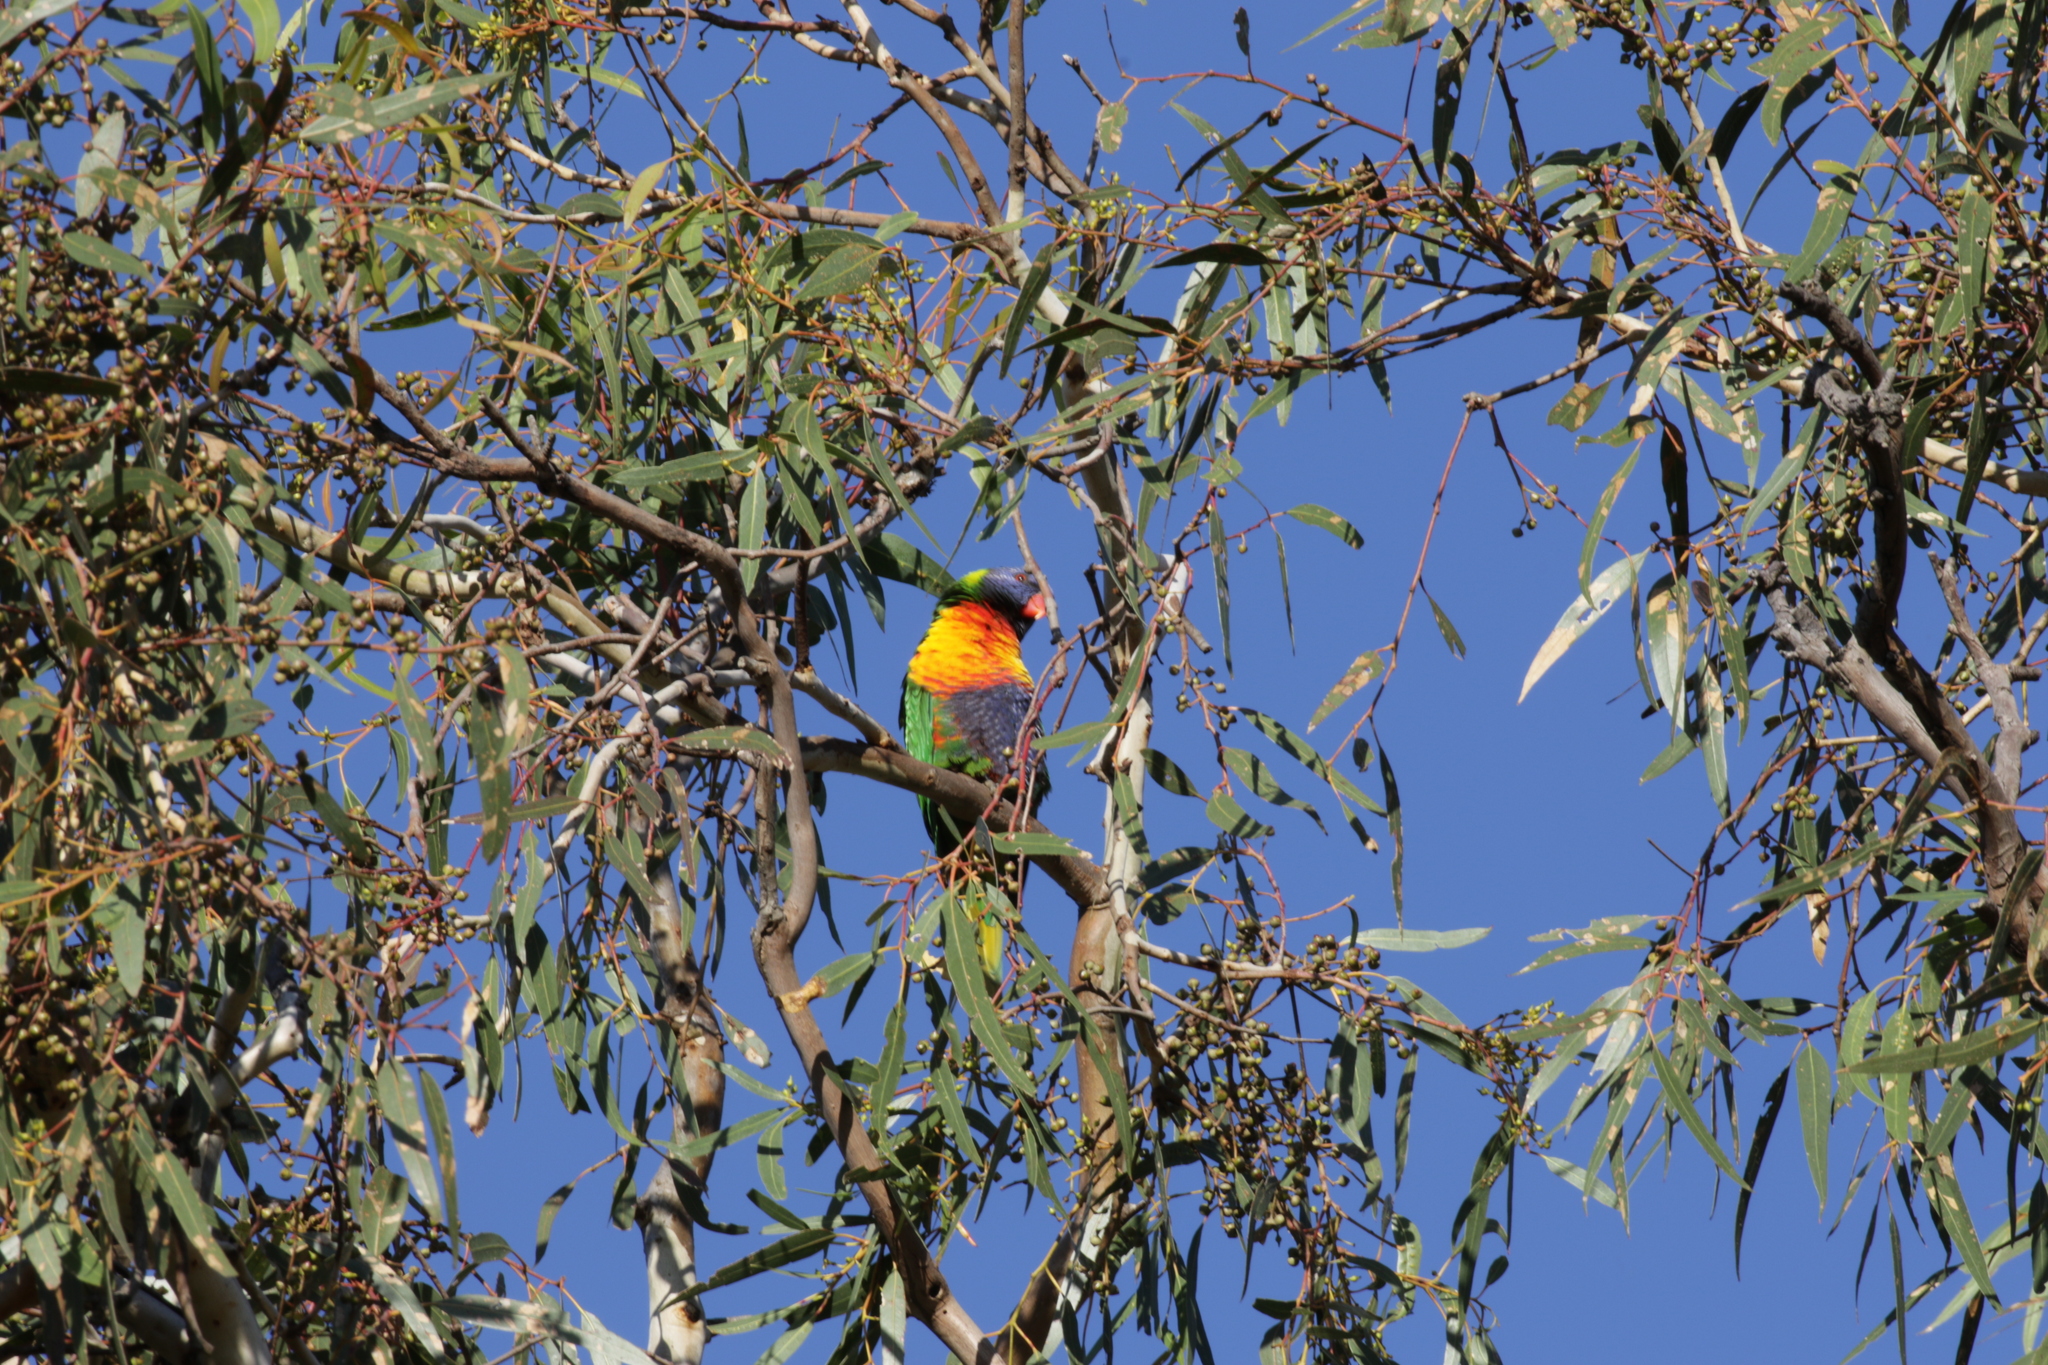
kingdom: Animalia
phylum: Chordata
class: Aves
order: Psittaciformes
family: Psittacidae
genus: Trichoglossus
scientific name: Trichoglossus haematodus
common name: Coconut lorikeet
